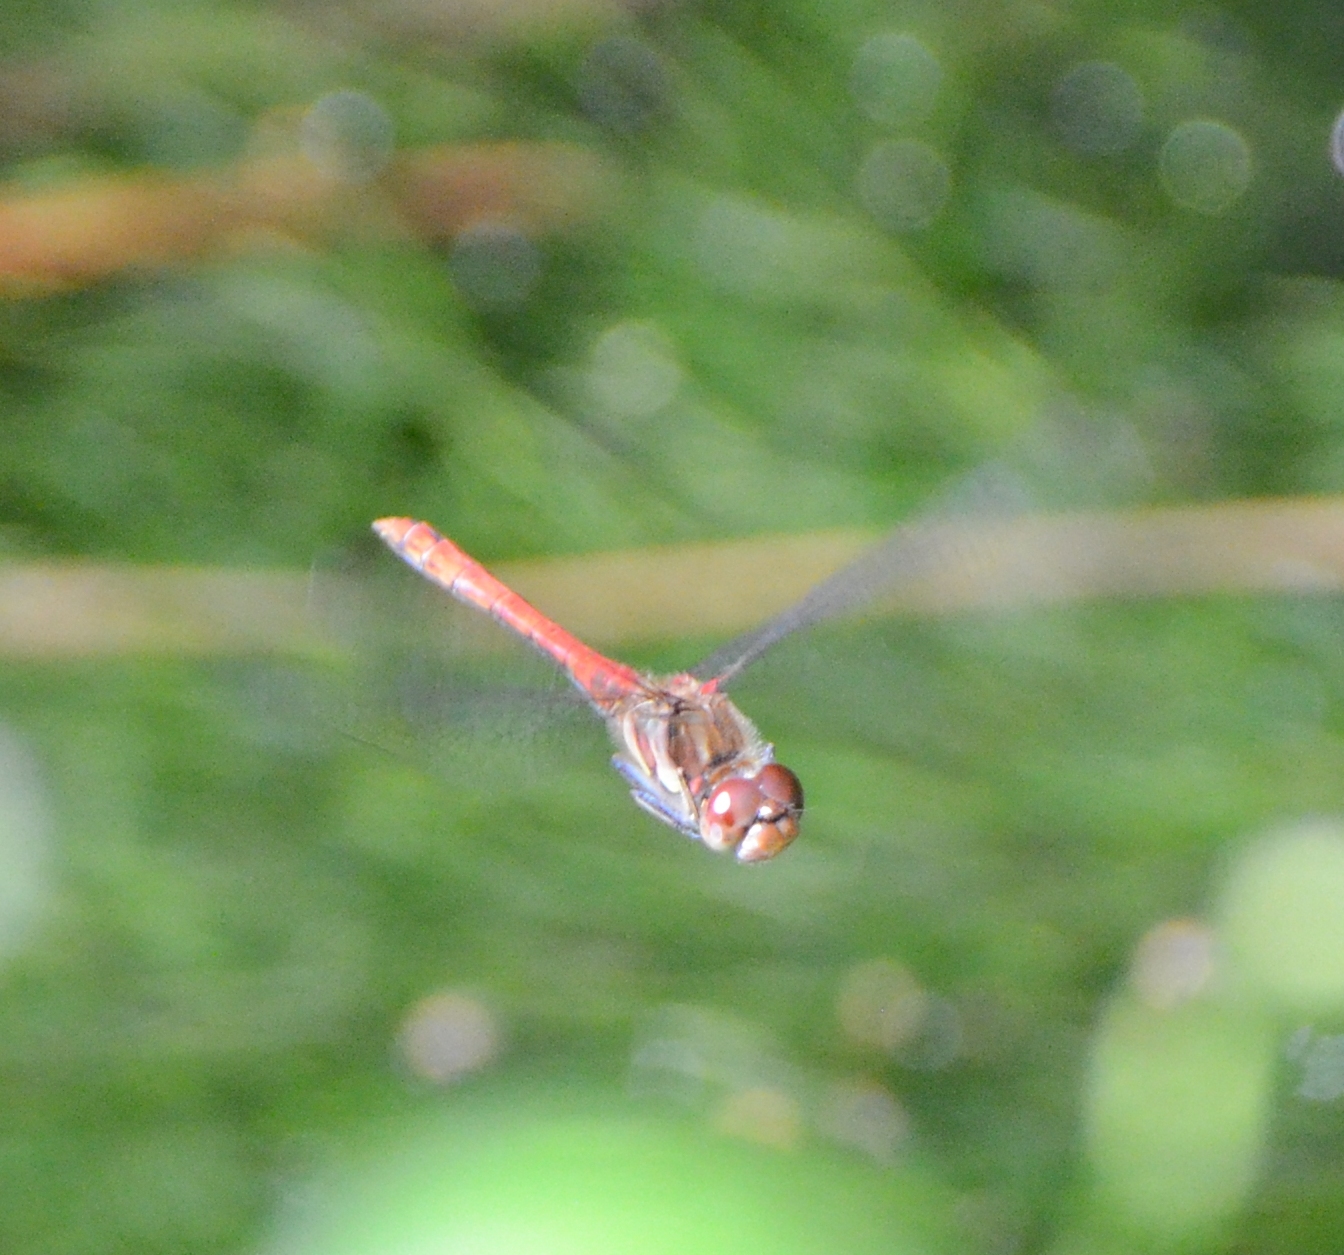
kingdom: Animalia
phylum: Arthropoda
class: Insecta
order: Odonata
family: Libellulidae
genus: Sympetrum
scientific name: Sympetrum striolatum
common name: Common darter
